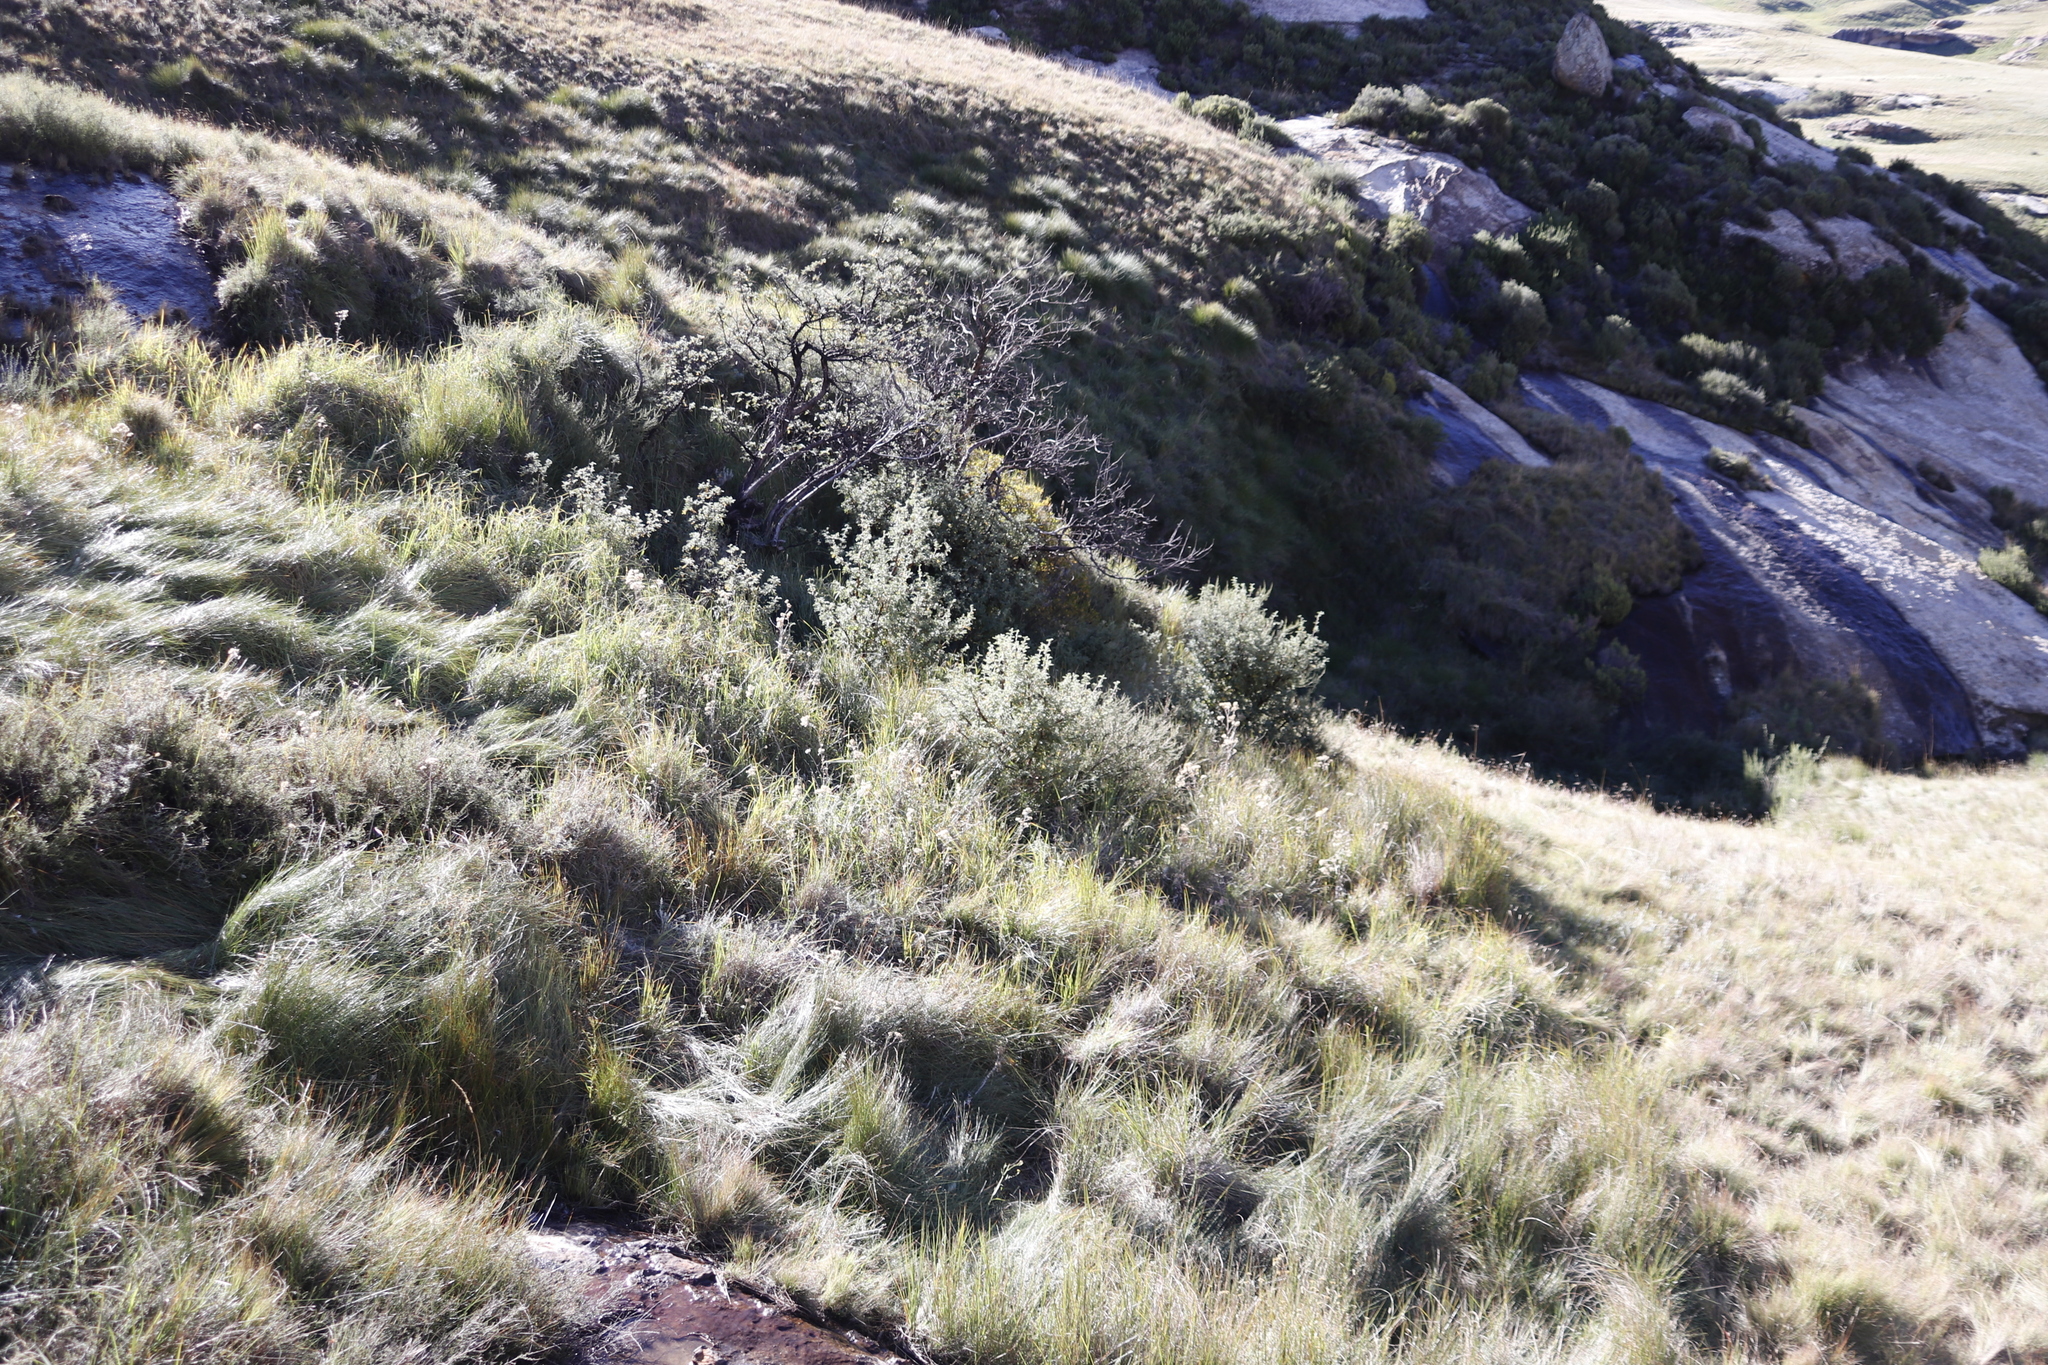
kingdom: Plantae
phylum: Tracheophyta
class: Magnoliopsida
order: Rosales
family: Rosaceae
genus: Leucosidea
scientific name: Leucosidea sericea
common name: Oldwood
